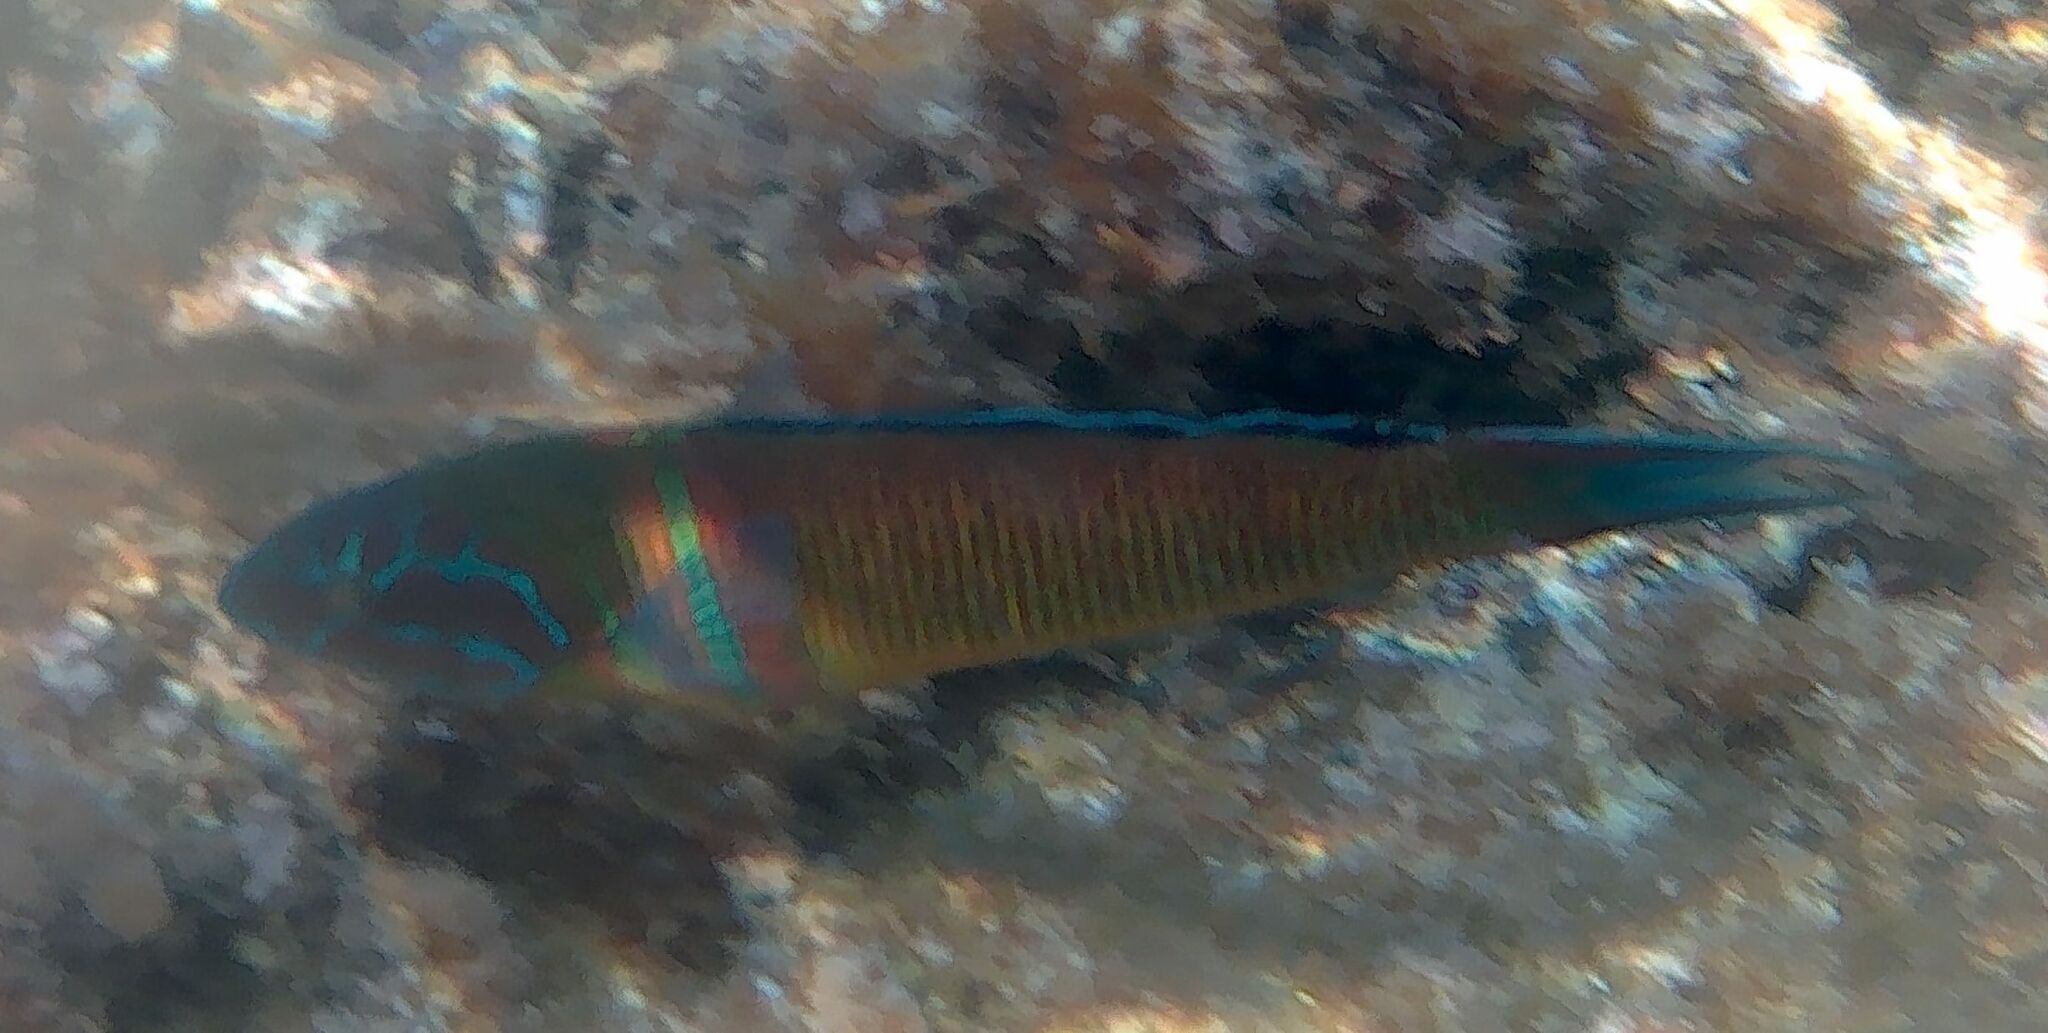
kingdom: Animalia
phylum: Chordata
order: Perciformes
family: Labridae
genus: Thalassoma
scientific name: Thalassoma pavo
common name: Ornate wrasse
